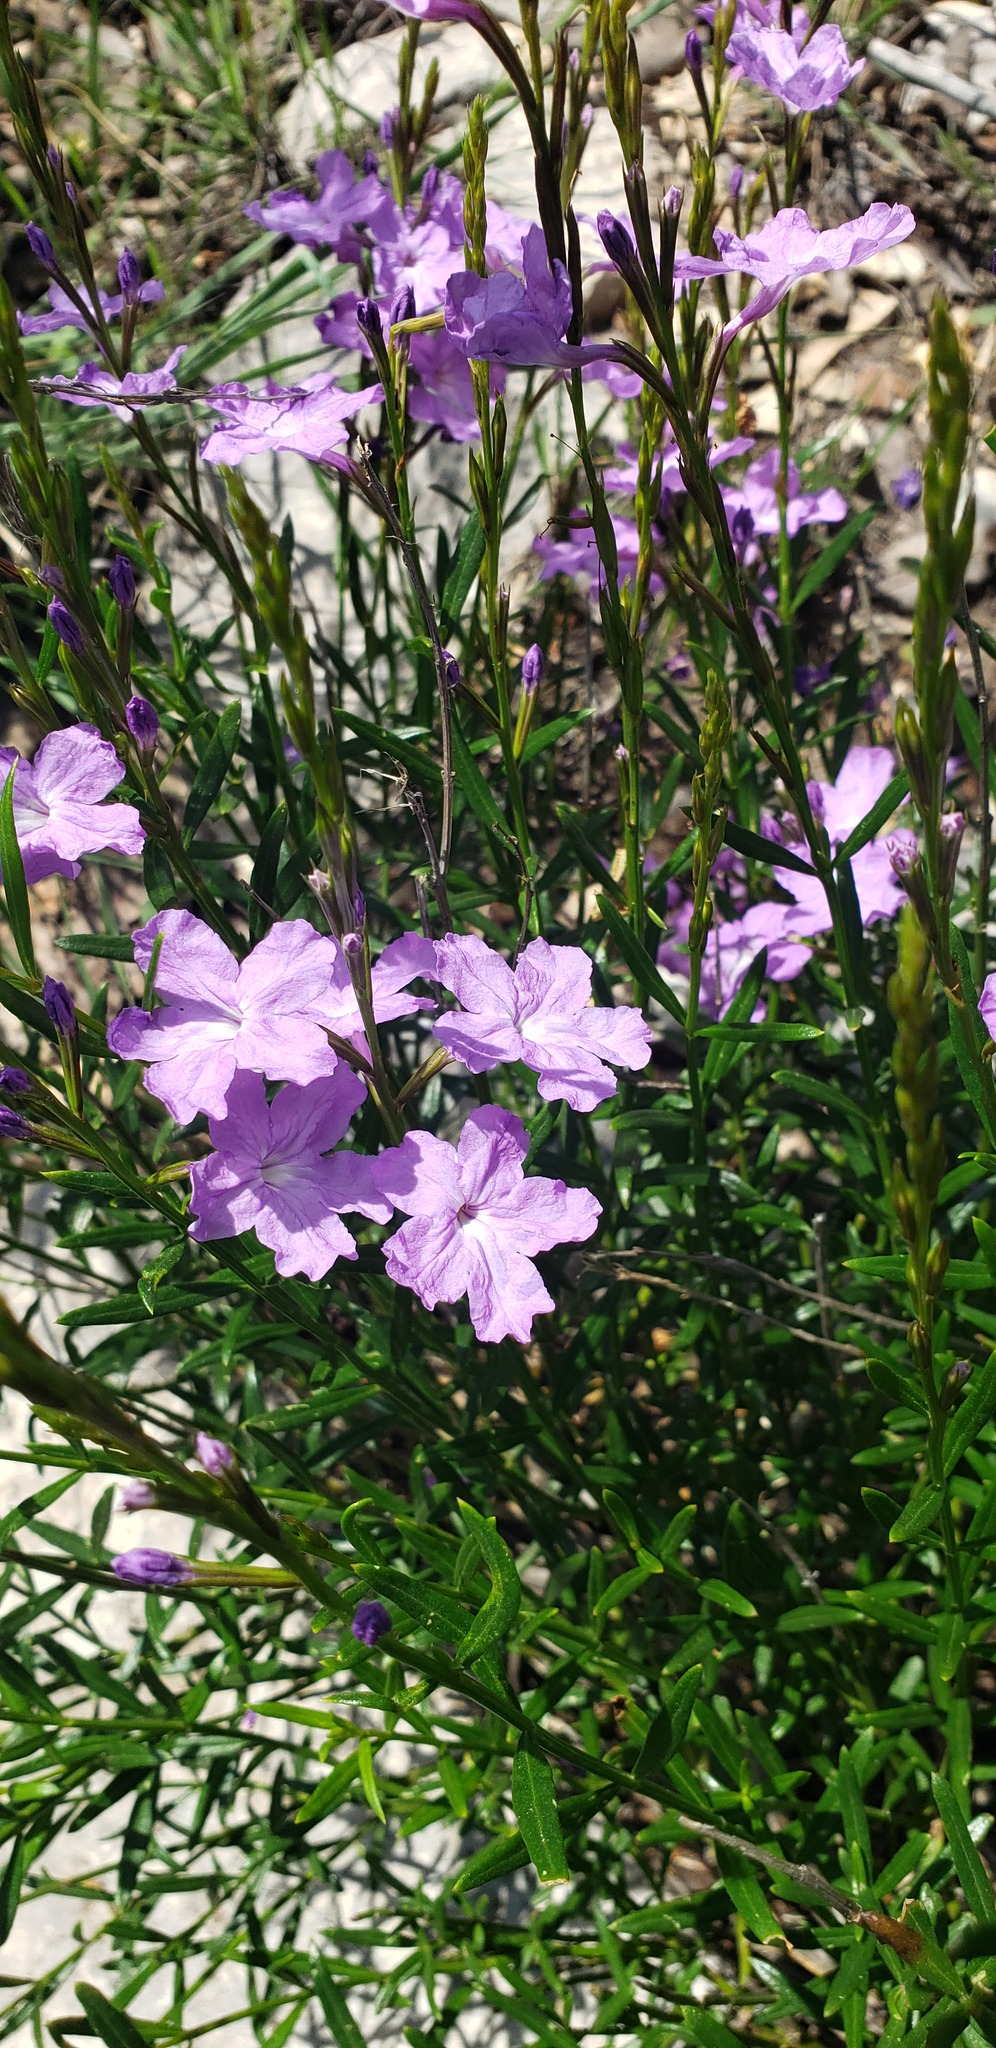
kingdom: Plantae
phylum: Tracheophyta
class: Magnoliopsida
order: Lamiales
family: Verbenaceae
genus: Bouchea
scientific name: Bouchea linifolia
